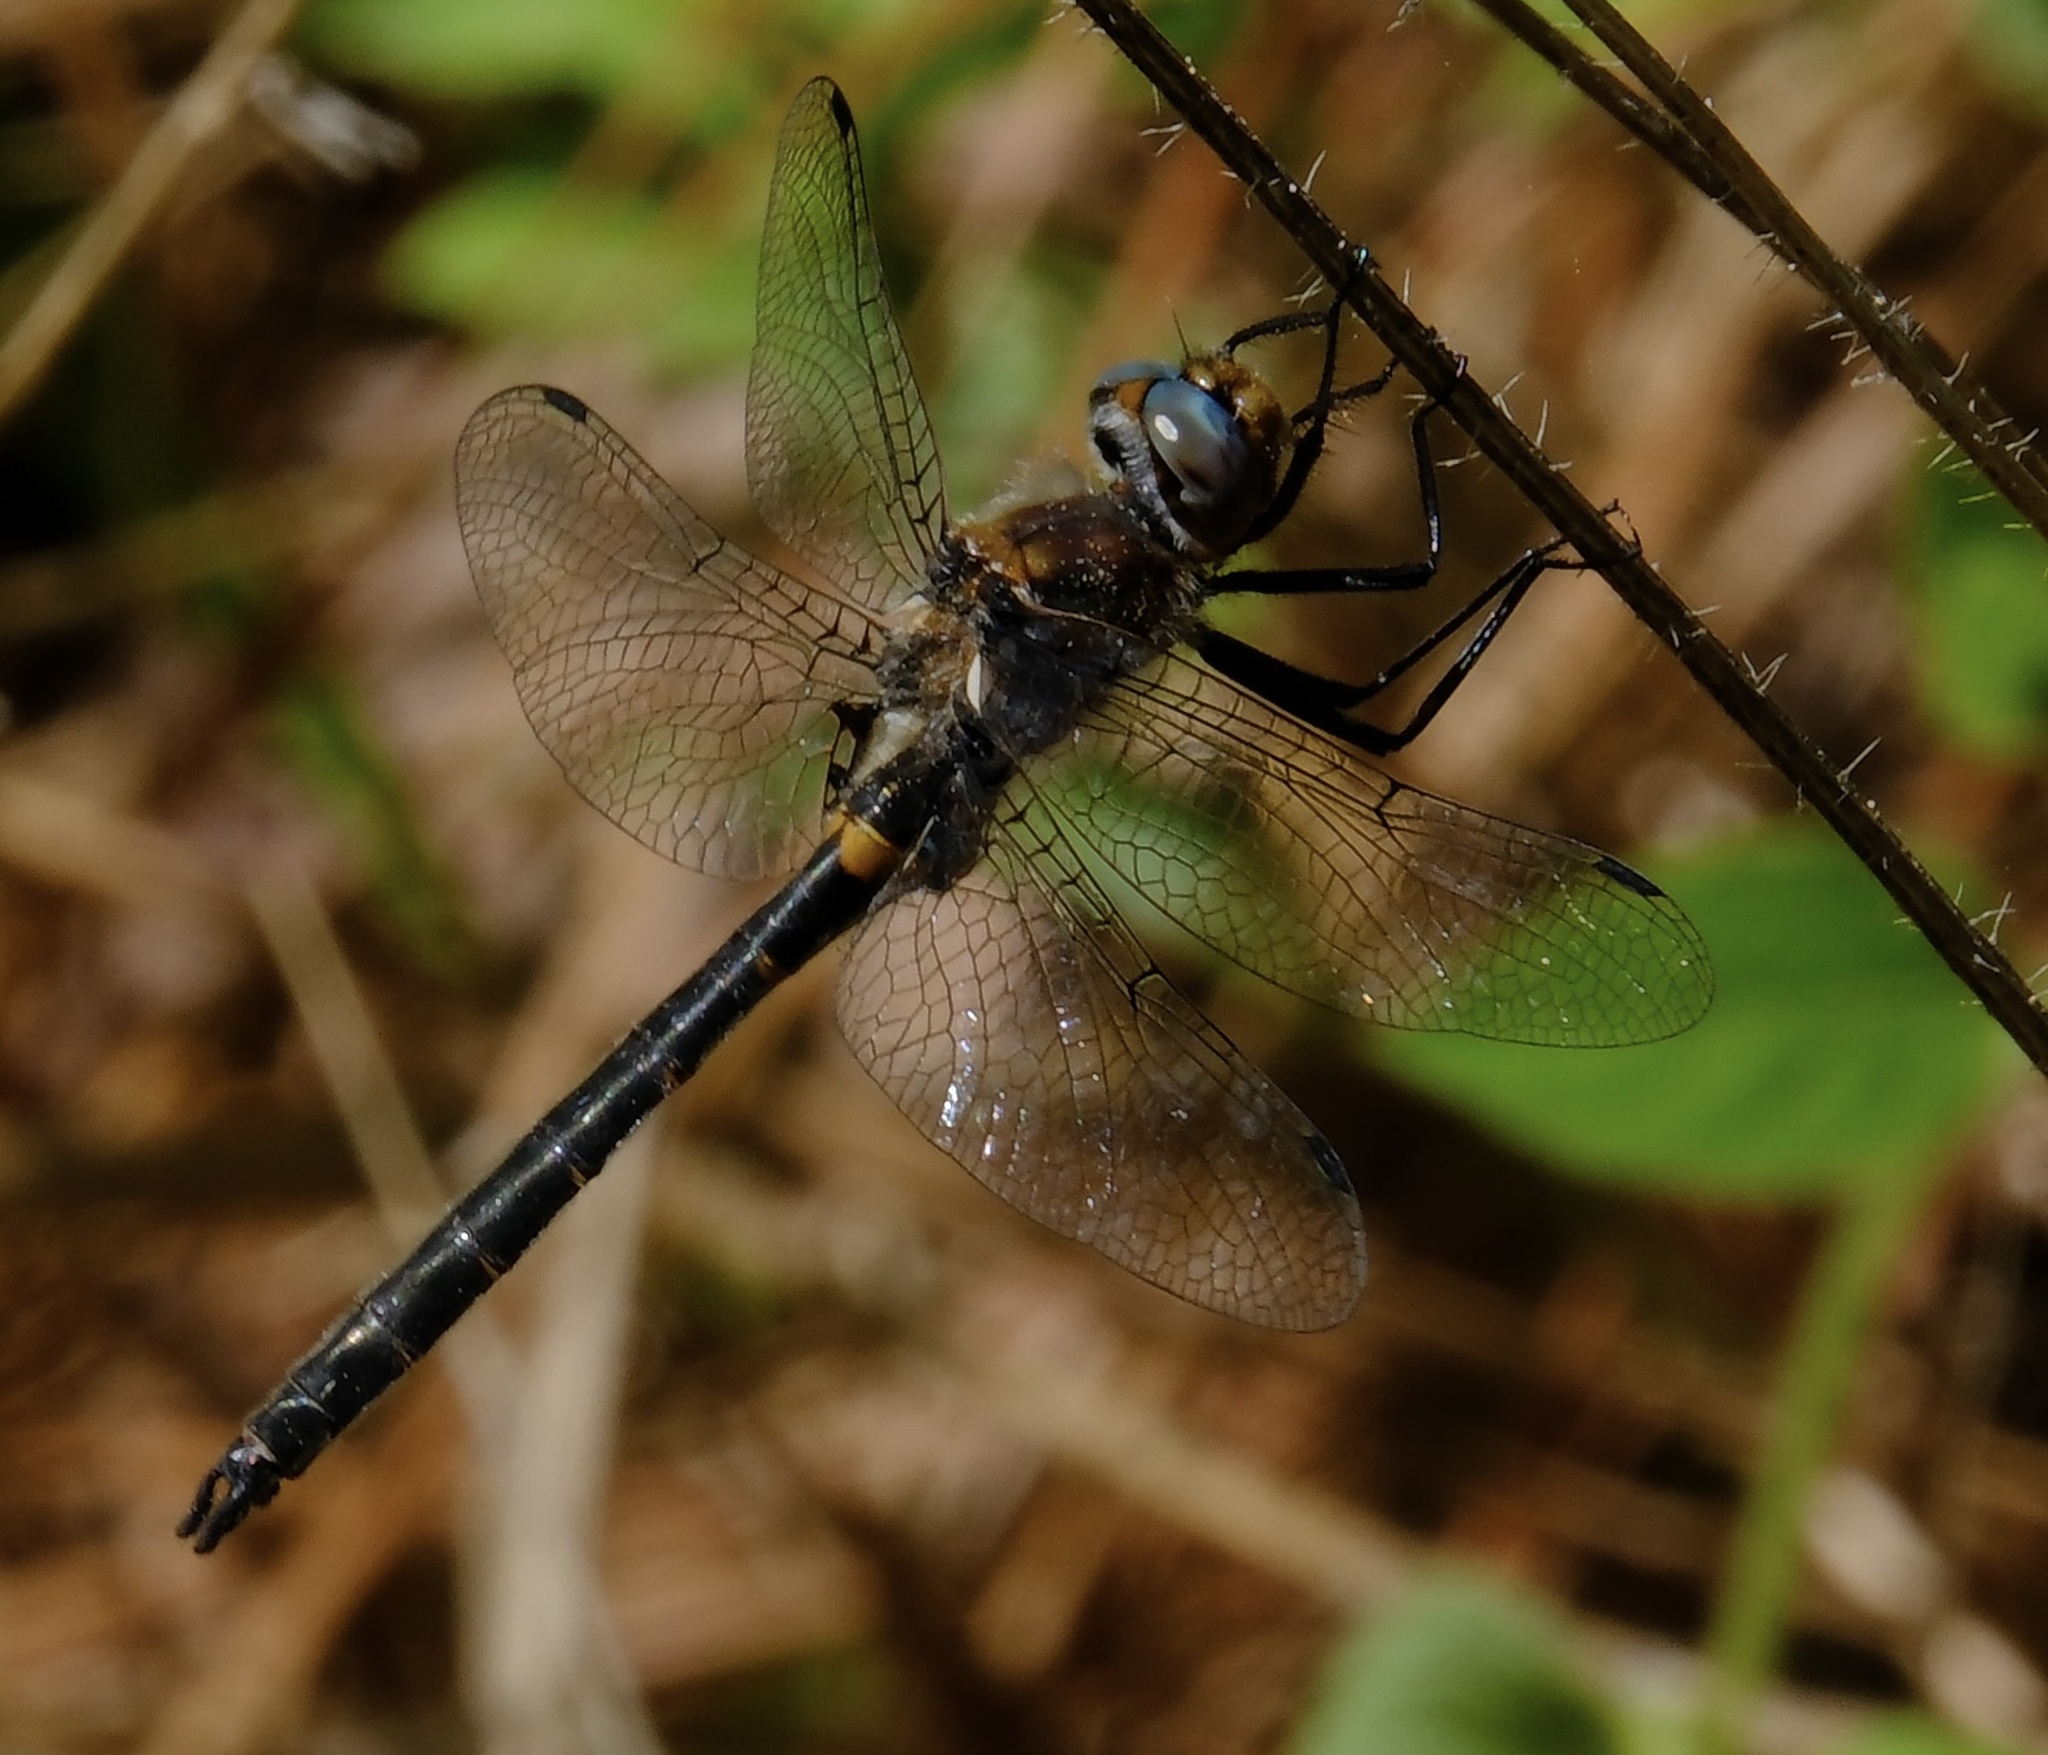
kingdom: Animalia
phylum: Arthropoda
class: Insecta
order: Odonata
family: Corduliidae
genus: Helocordulia
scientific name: Helocordulia selysii
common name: Selys's sundragon
